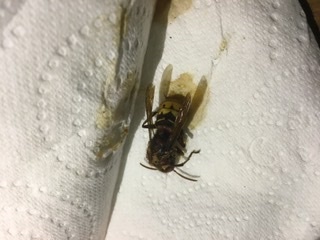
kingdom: Animalia
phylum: Arthropoda
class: Insecta
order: Hymenoptera
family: Vespidae
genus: Vespa
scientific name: Vespa crabro
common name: Hornet
